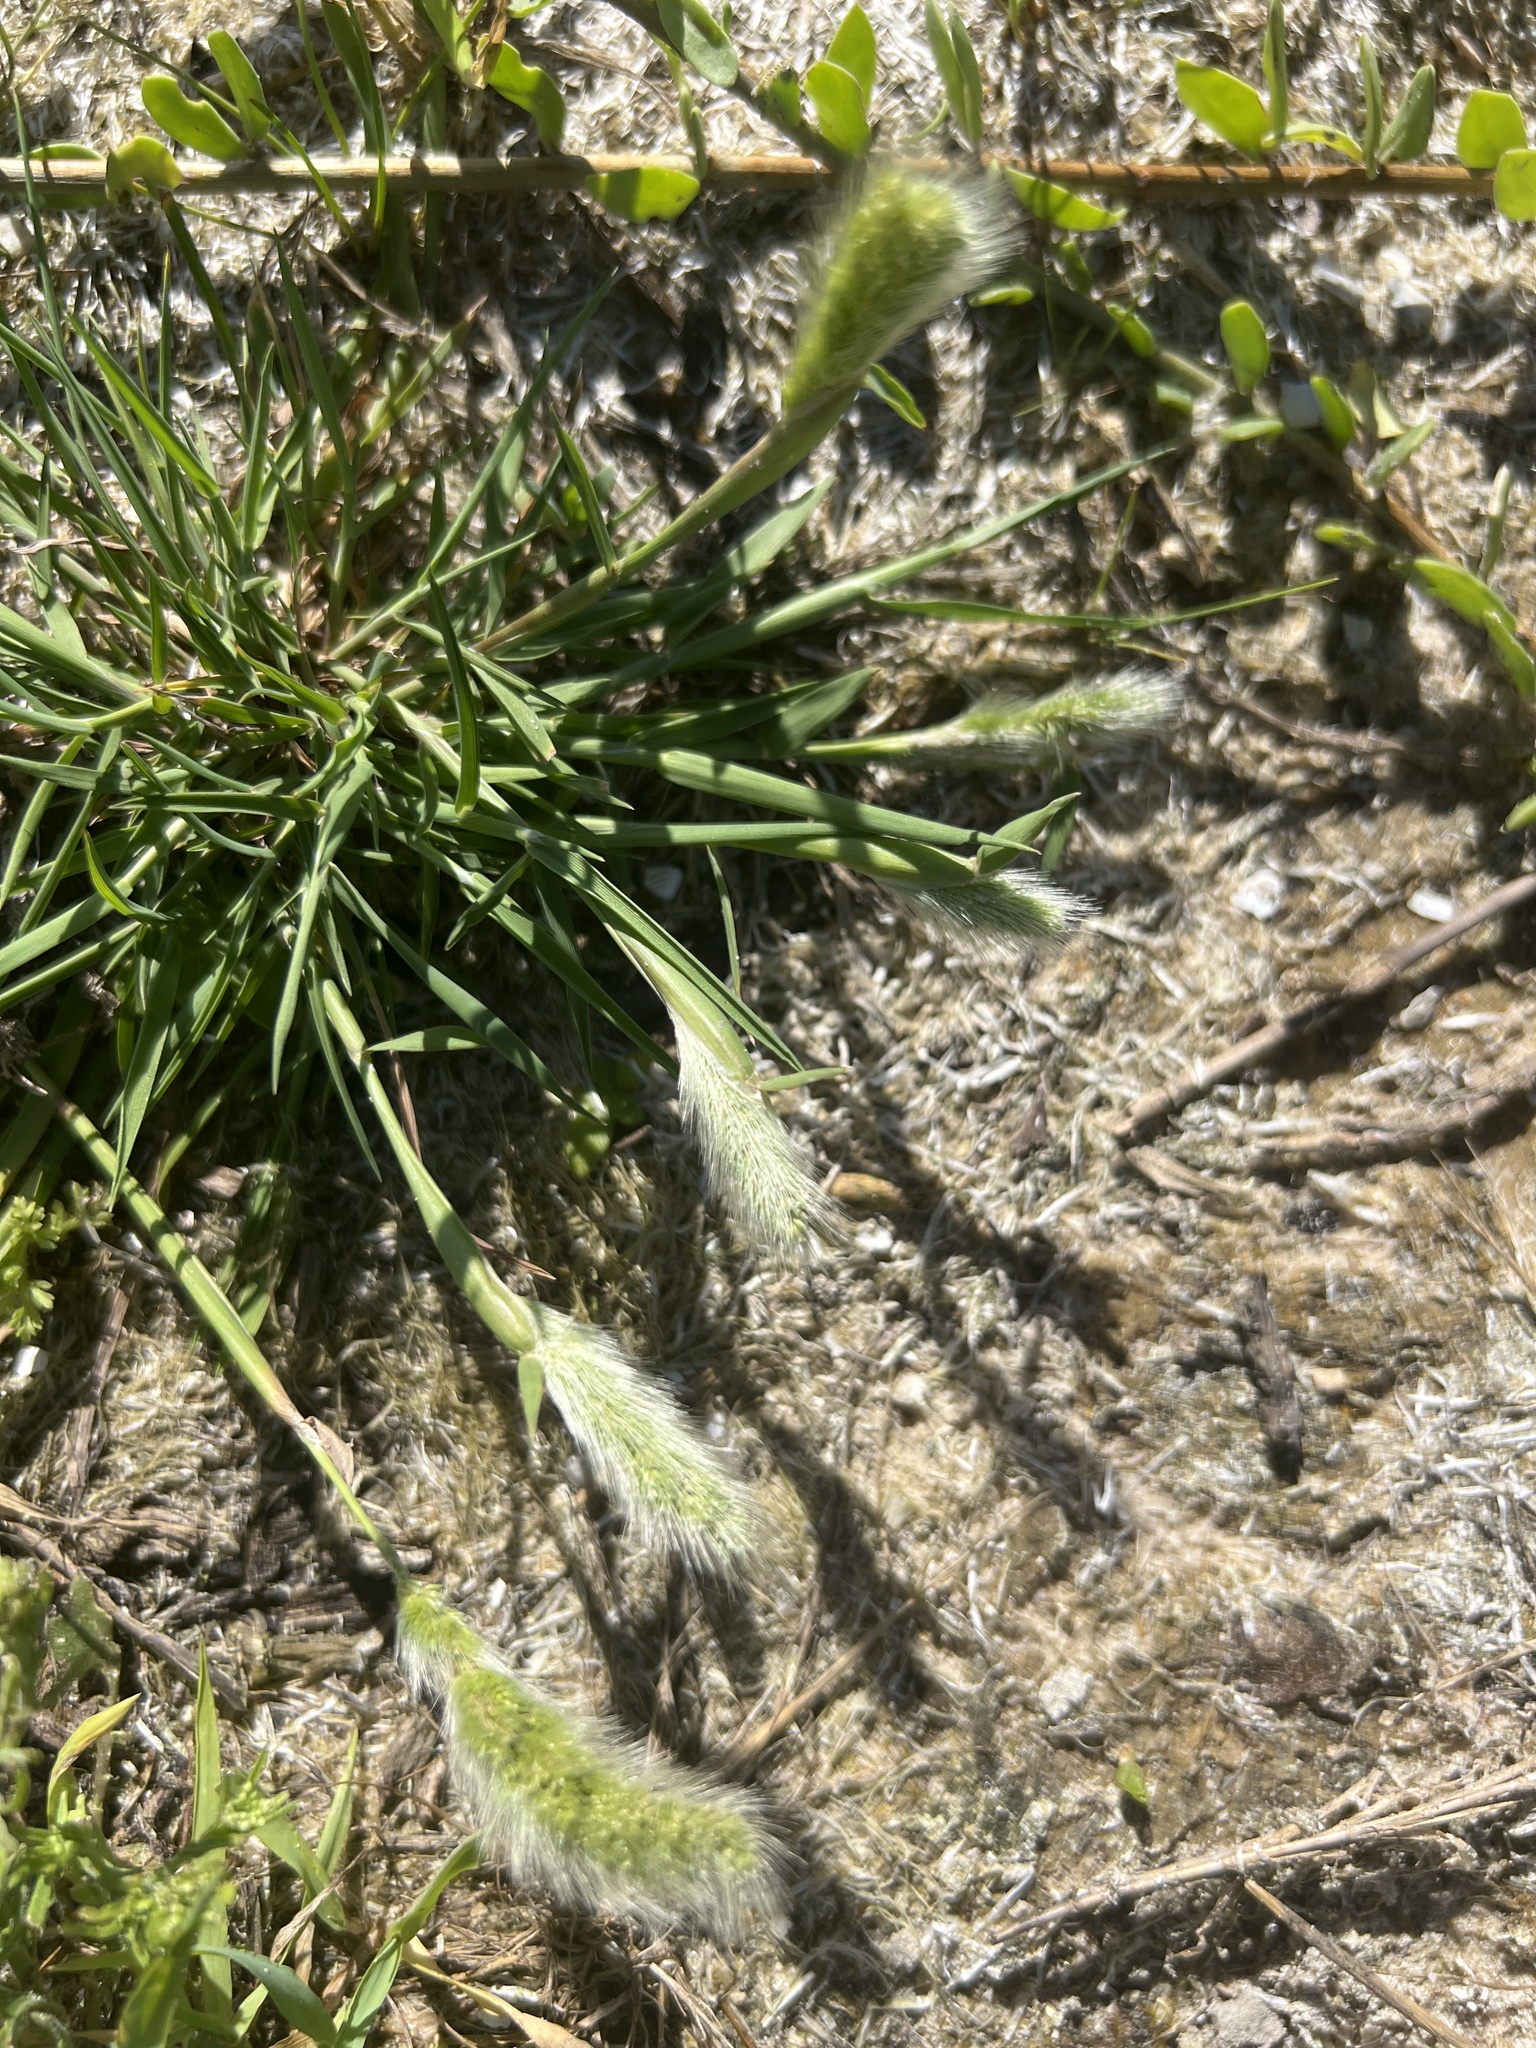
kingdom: Plantae
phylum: Tracheophyta
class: Liliopsida
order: Poales
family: Poaceae
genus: Polypogon
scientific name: Polypogon monspeliensis
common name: Annual rabbitsfoot grass
